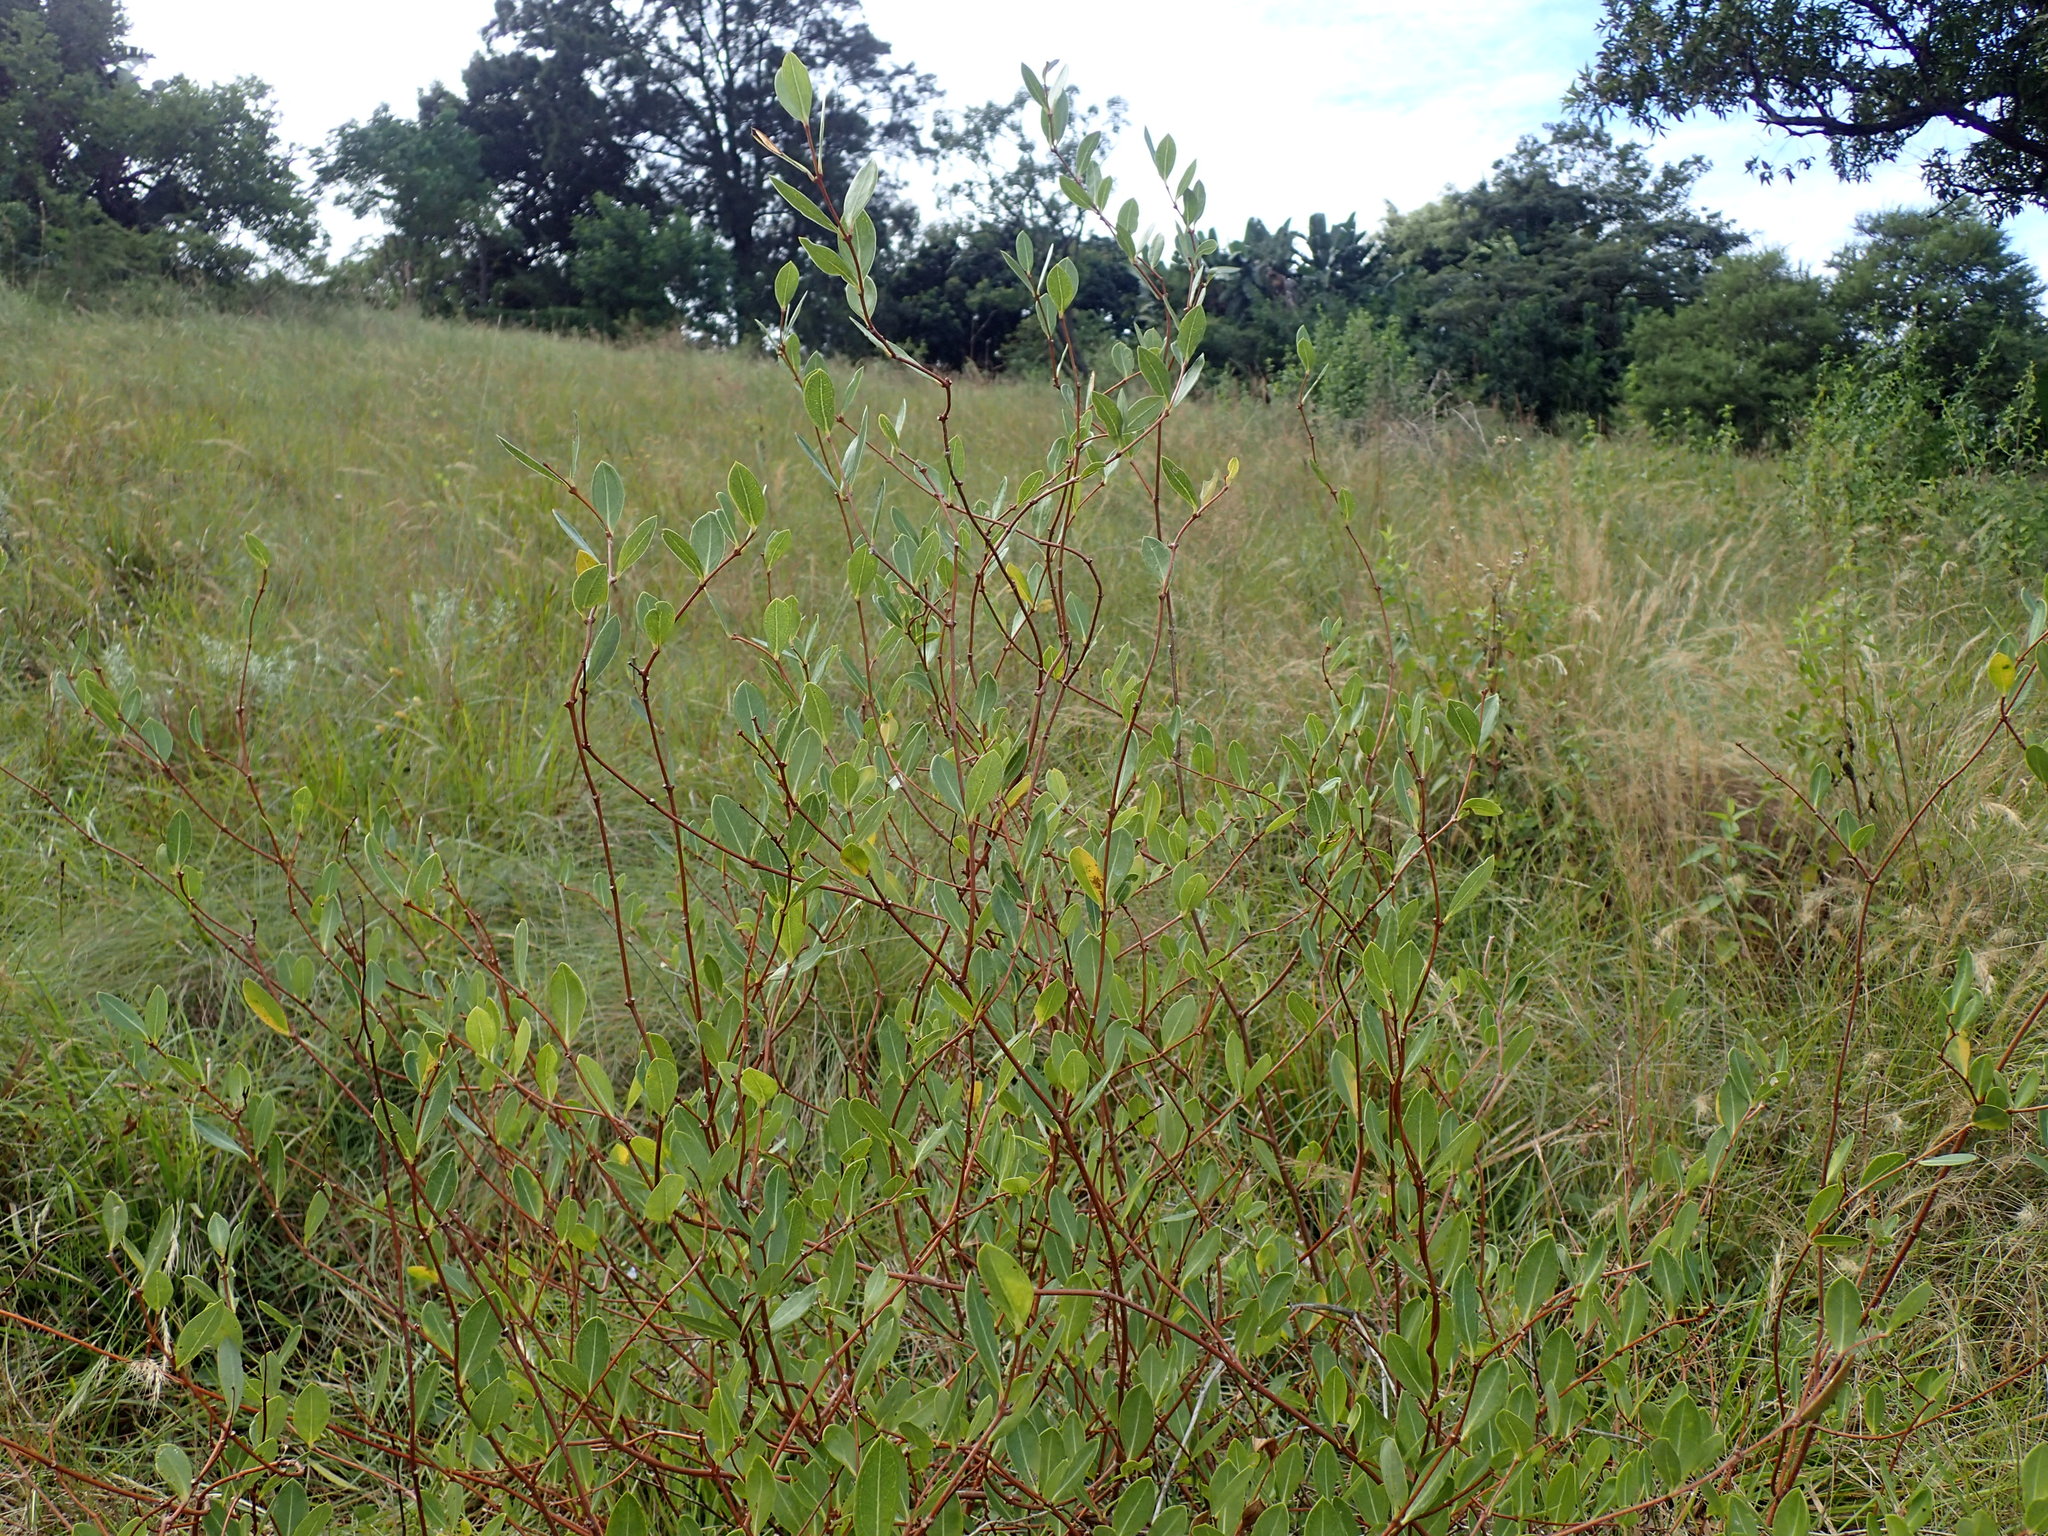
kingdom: Plantae
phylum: Tracheophyta
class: Magnoliopsida
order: Gentianales
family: Apocynaceae
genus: Cryptolepis
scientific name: Cryptolepis oblongifolia
